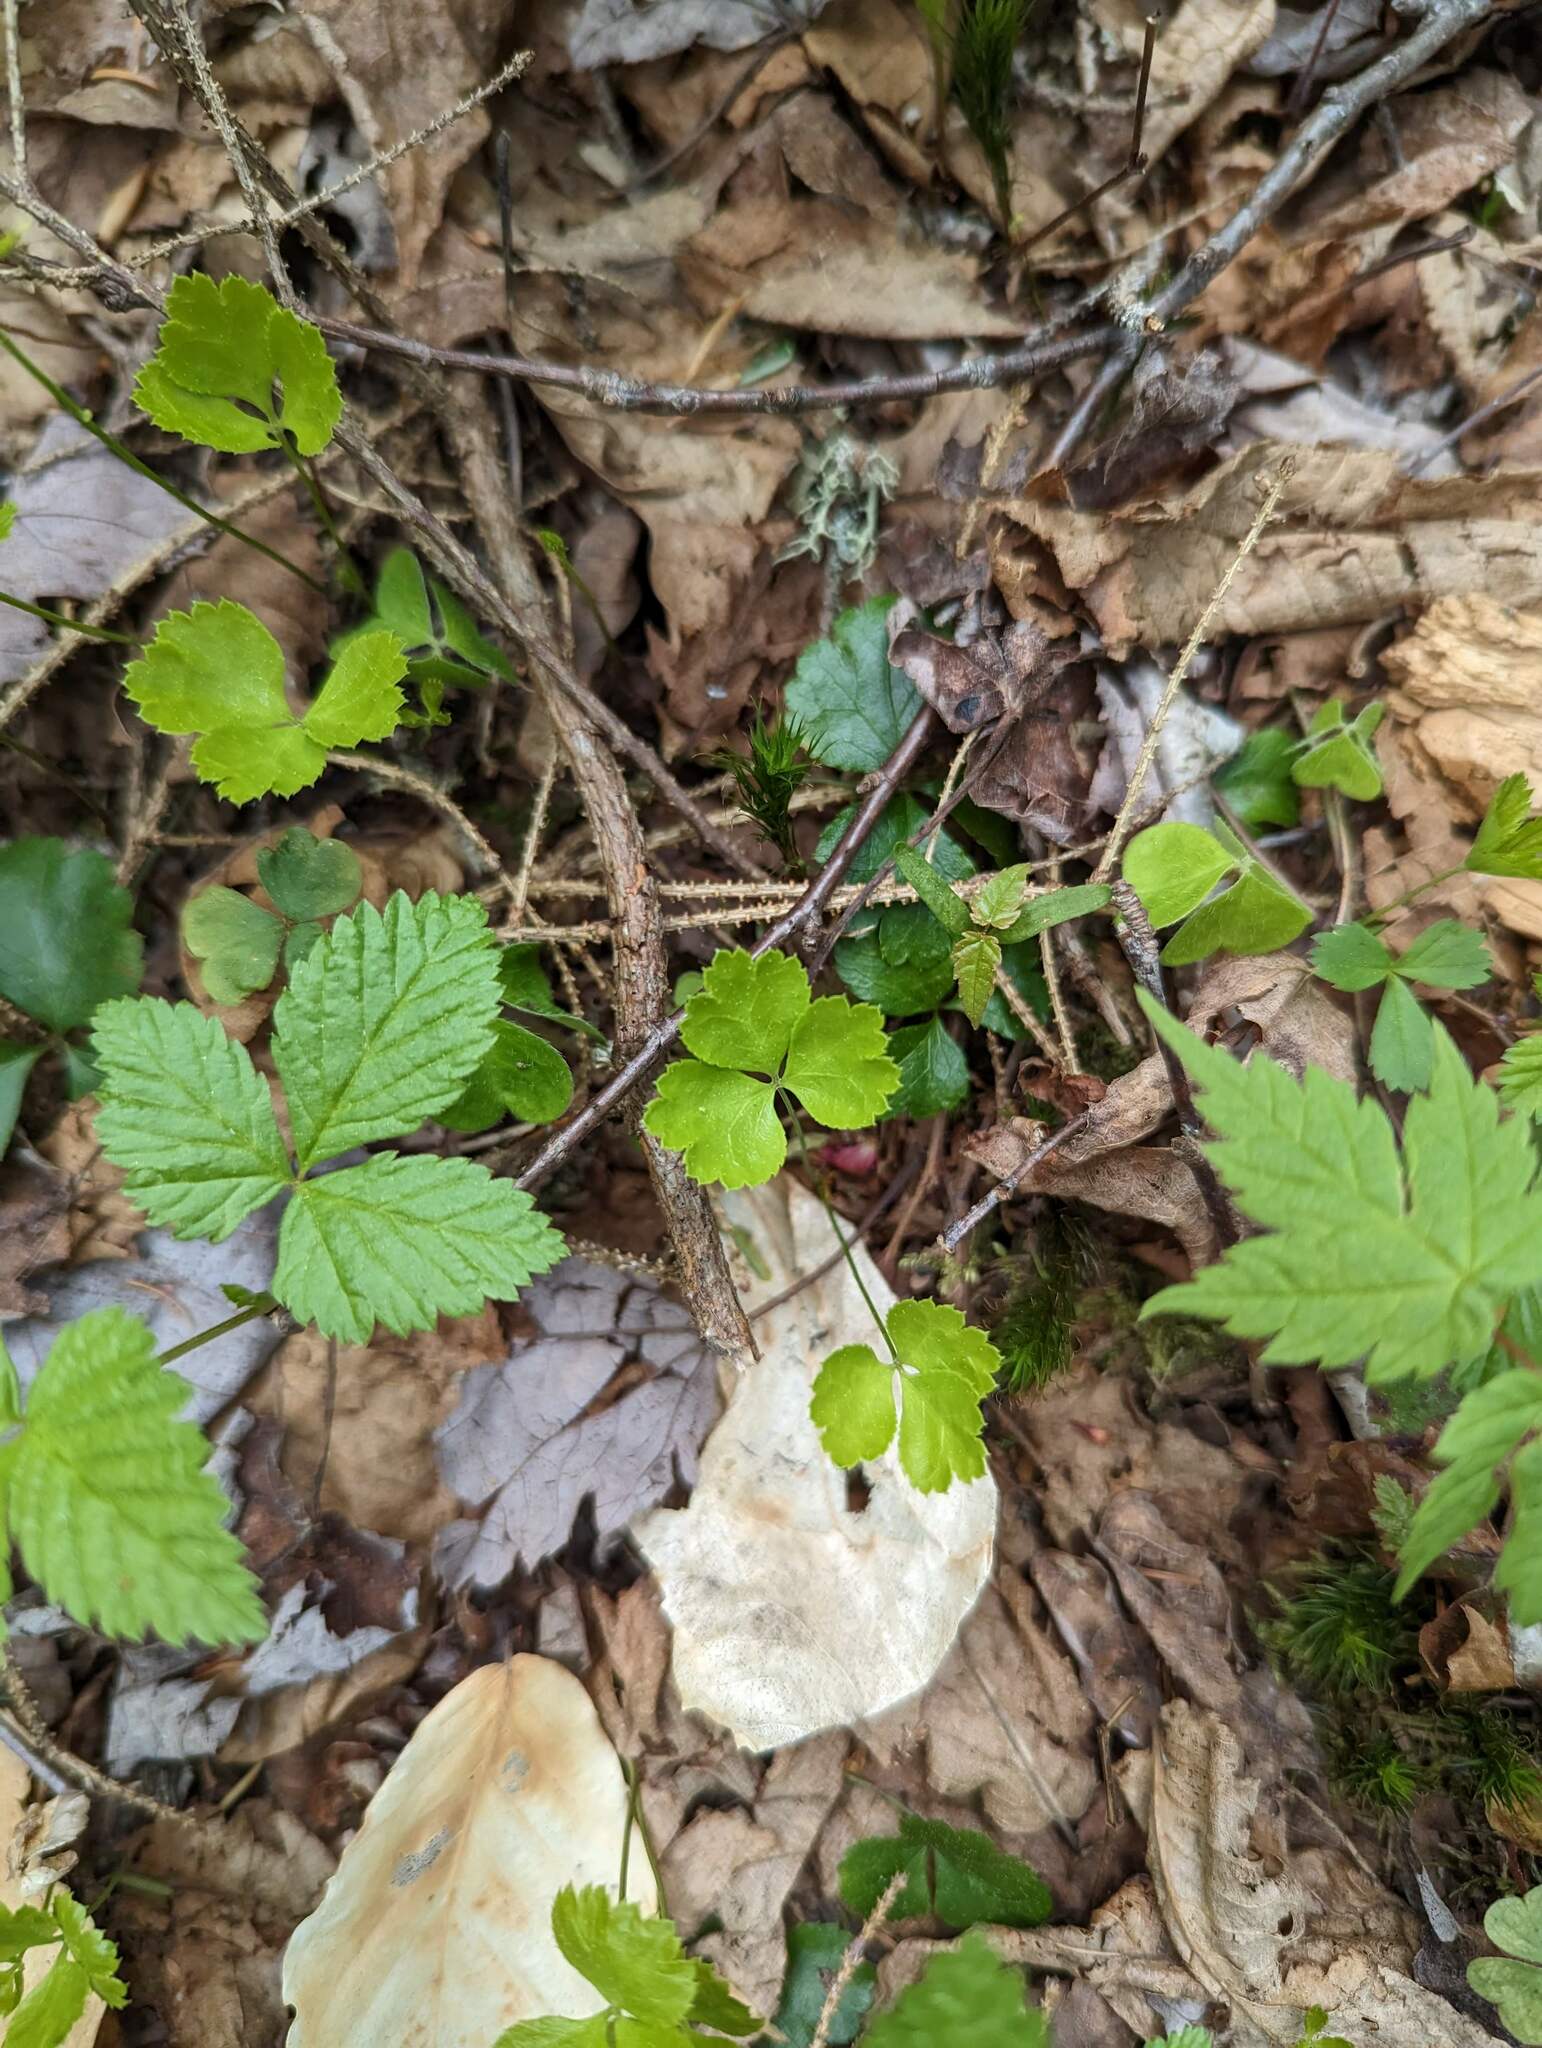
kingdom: Plantae
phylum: Tracheophyta
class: Magnoliopsida
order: Ranunculales
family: Ranunculaceae
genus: Coptis
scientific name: Coptis trifolia
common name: Canker-root
